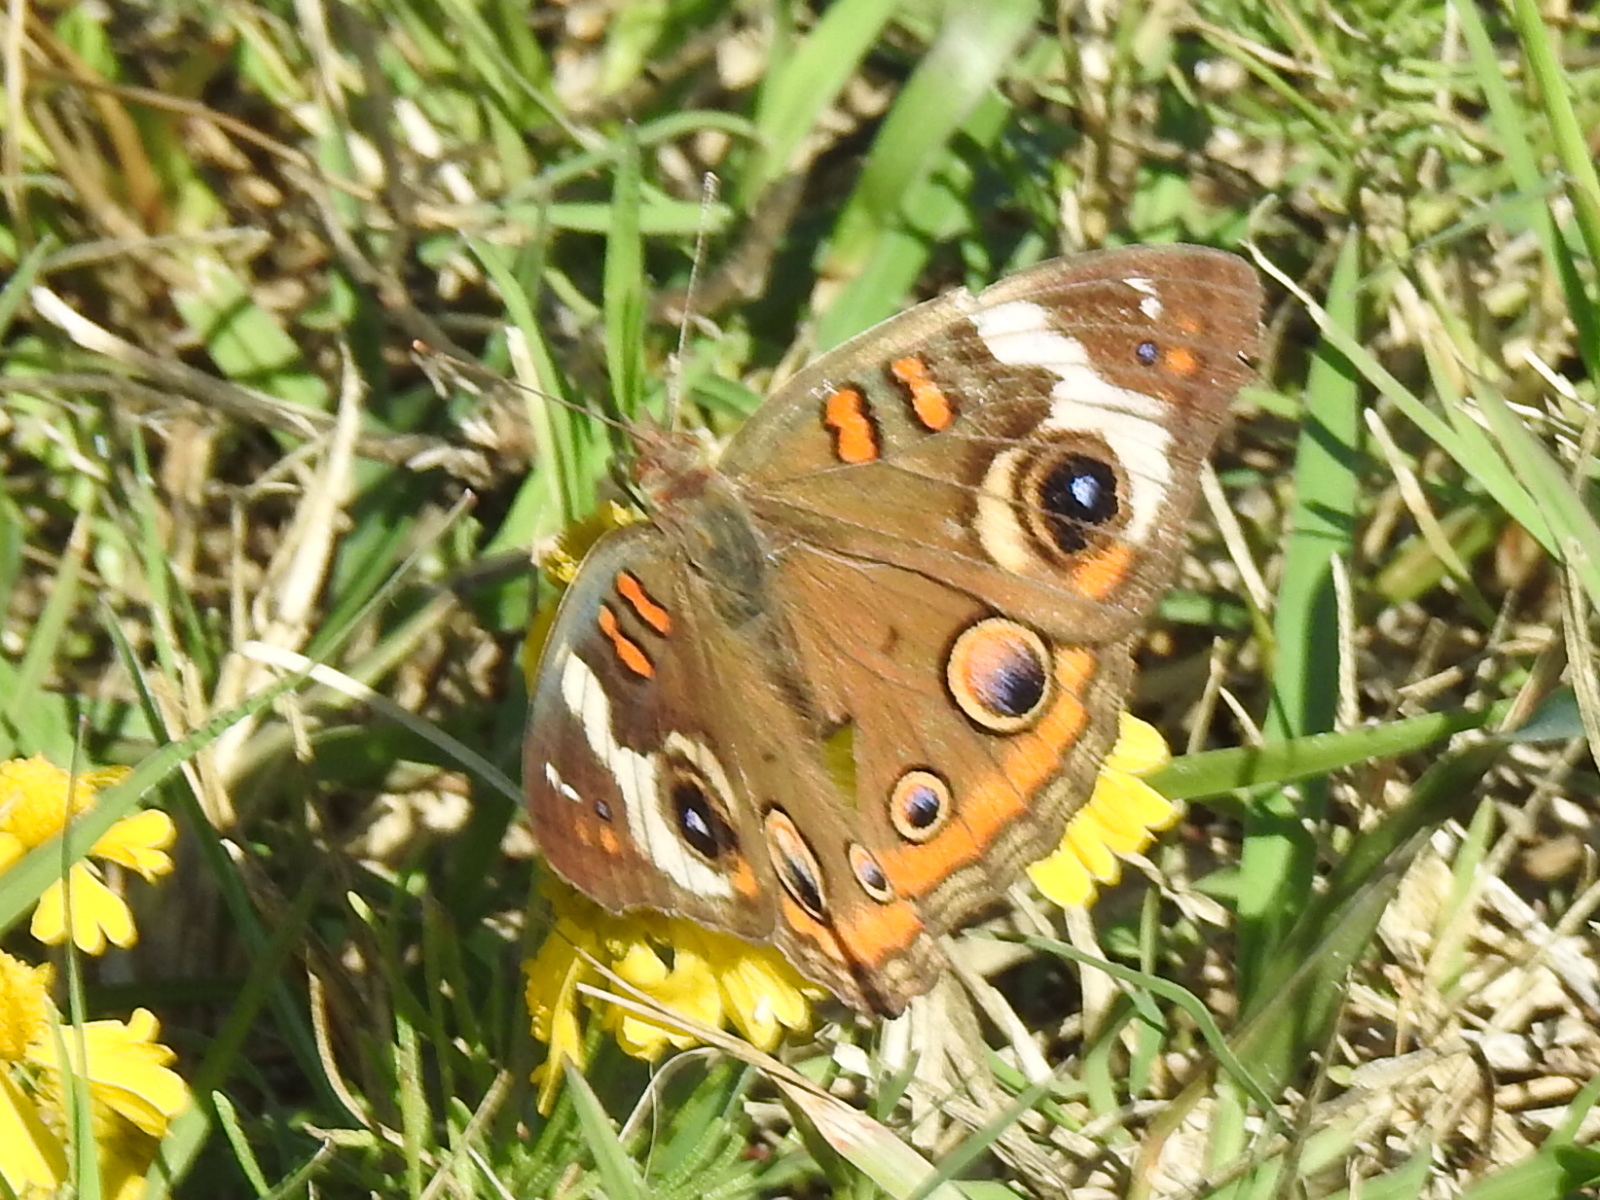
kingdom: Animalia
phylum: Arthropoda
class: Insecta
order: Lepidoptera
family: Nymphalidae
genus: Junonia
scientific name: Junonia coenia
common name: Common buckeye
